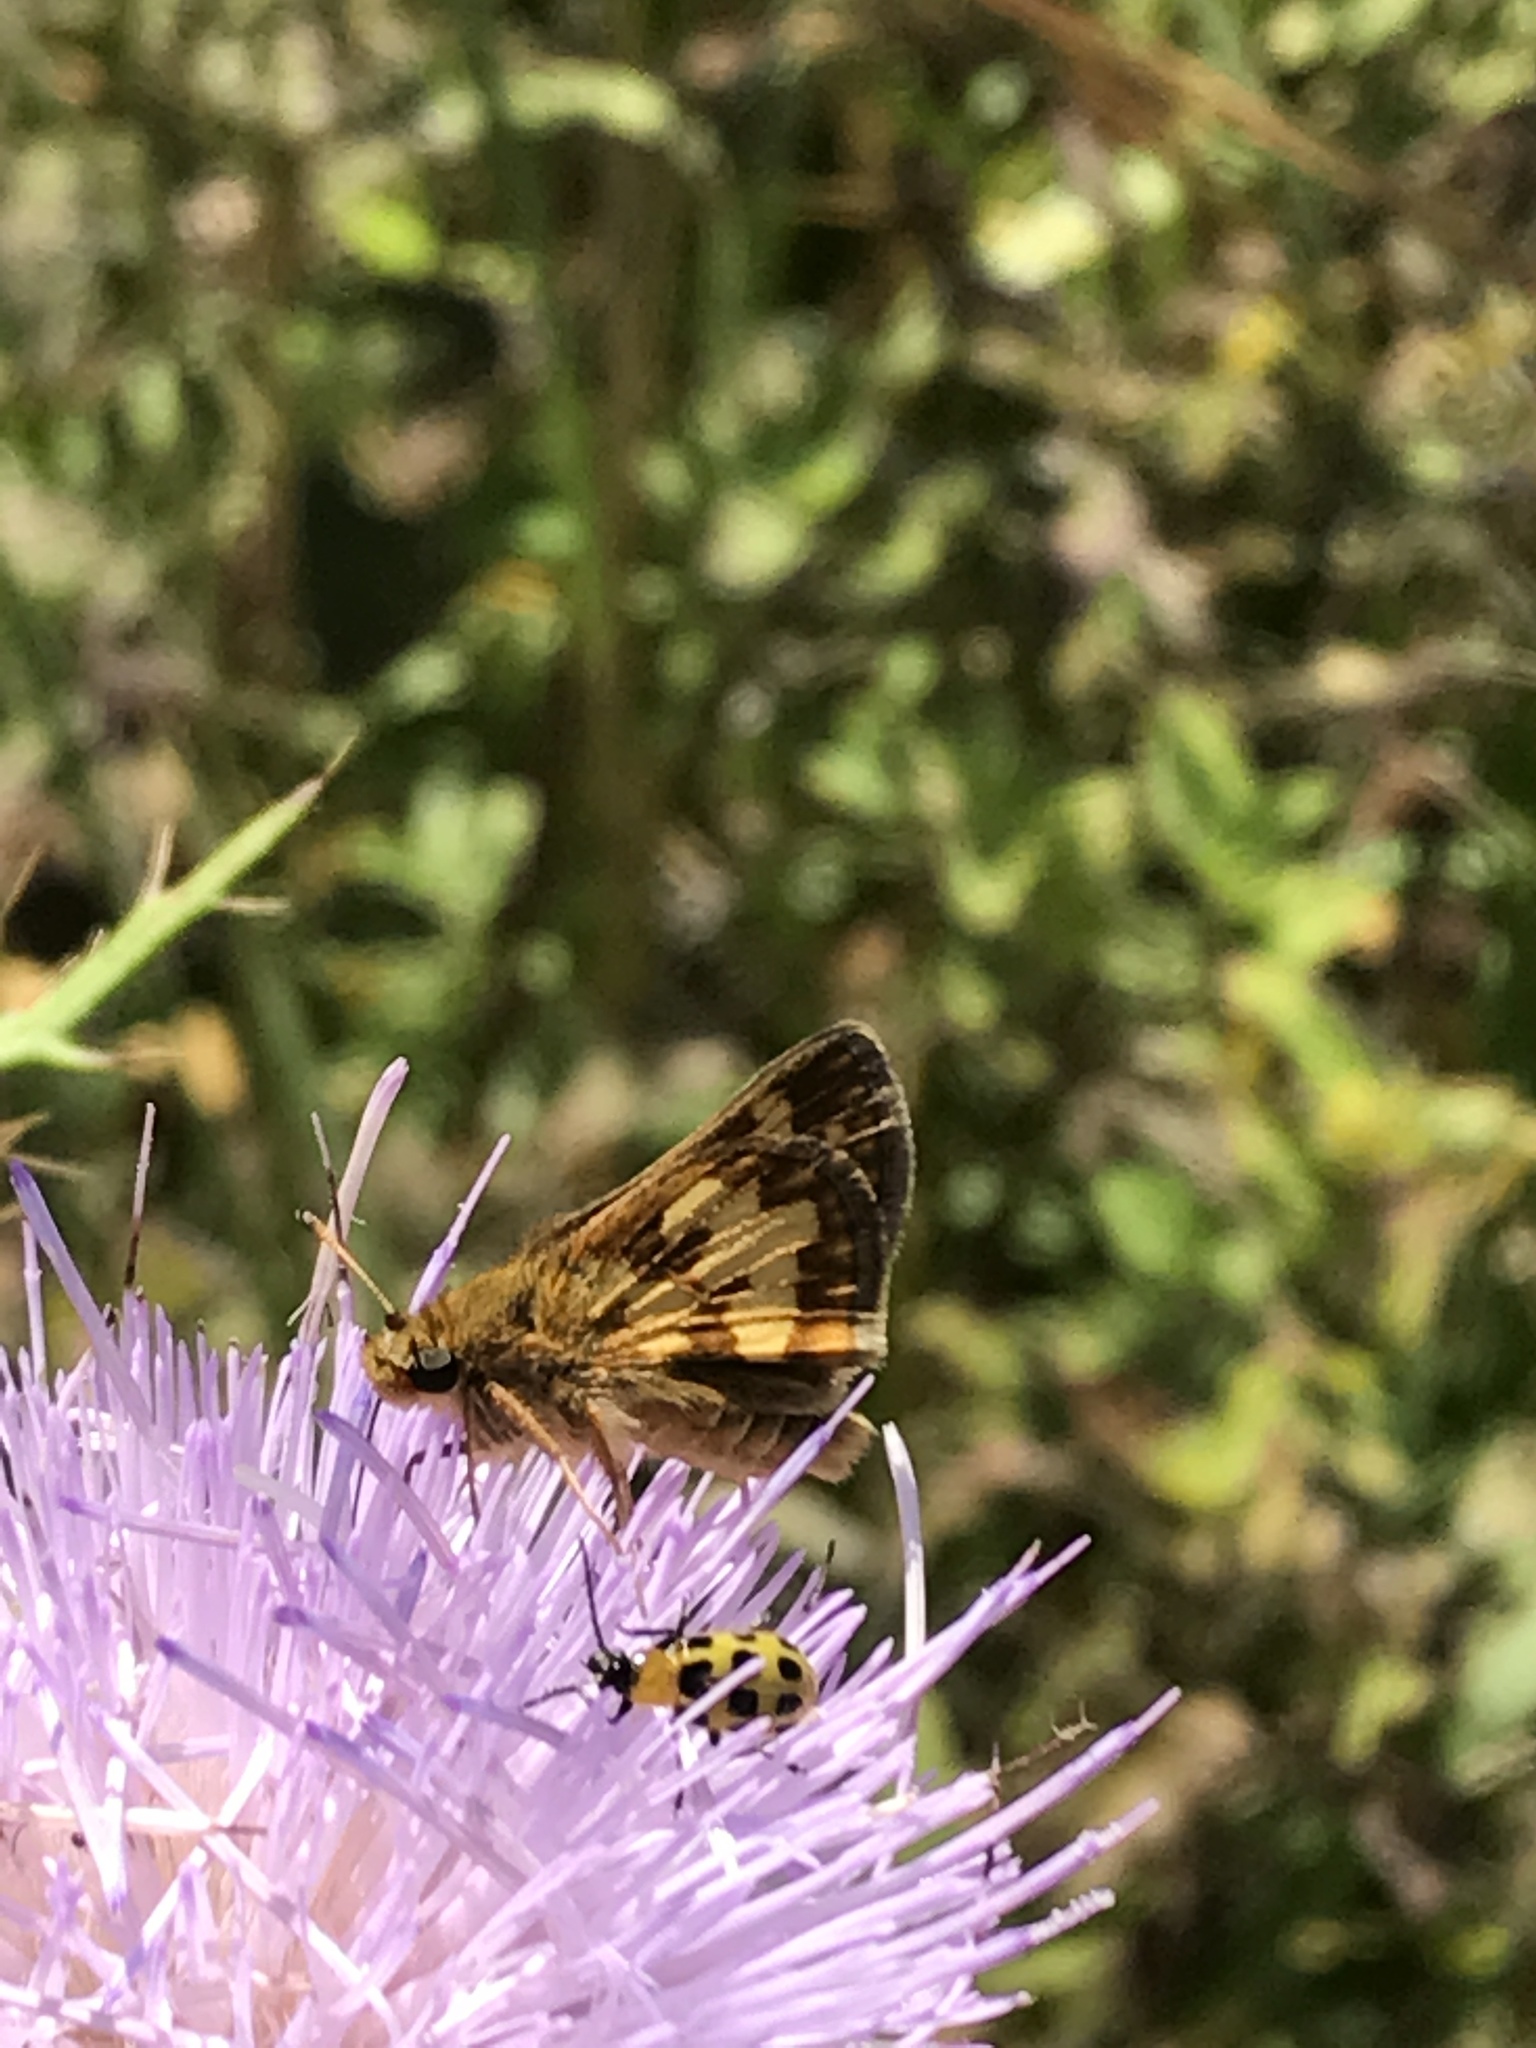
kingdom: Animalia
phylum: Arthropoda
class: Insecta
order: Lepidoptera
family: Hesperiidae
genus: Polites
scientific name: Polites coras
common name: Peck's skipper
